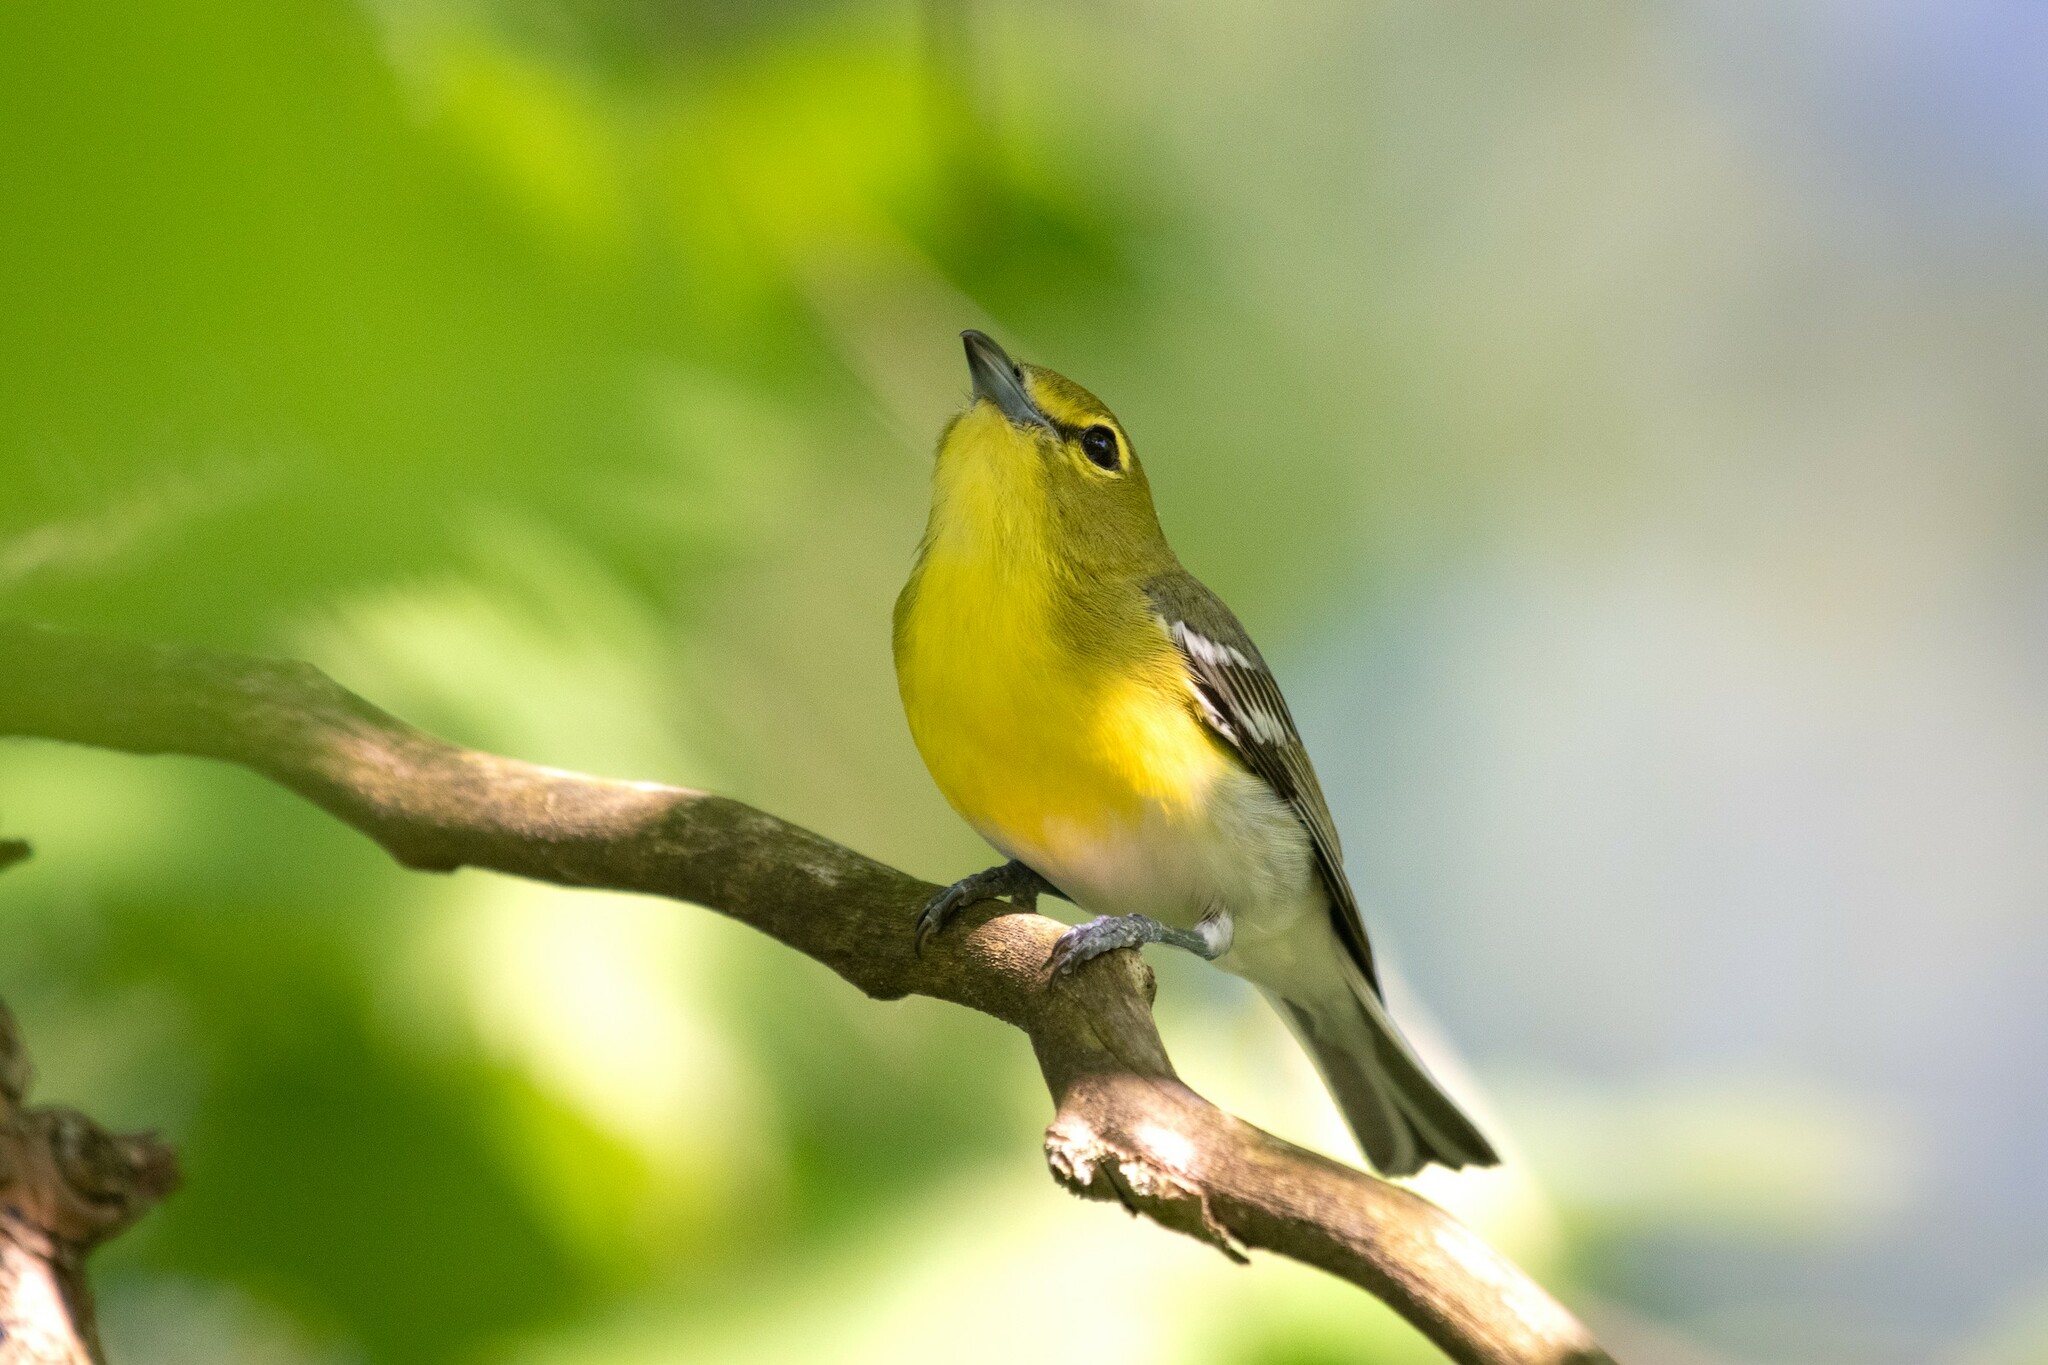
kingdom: Animalia
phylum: Chordata
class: Aves
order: Passeriformes
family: Vireonidae
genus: Vireo
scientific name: Vireo flavifrons
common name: Yellow-throated vireo
